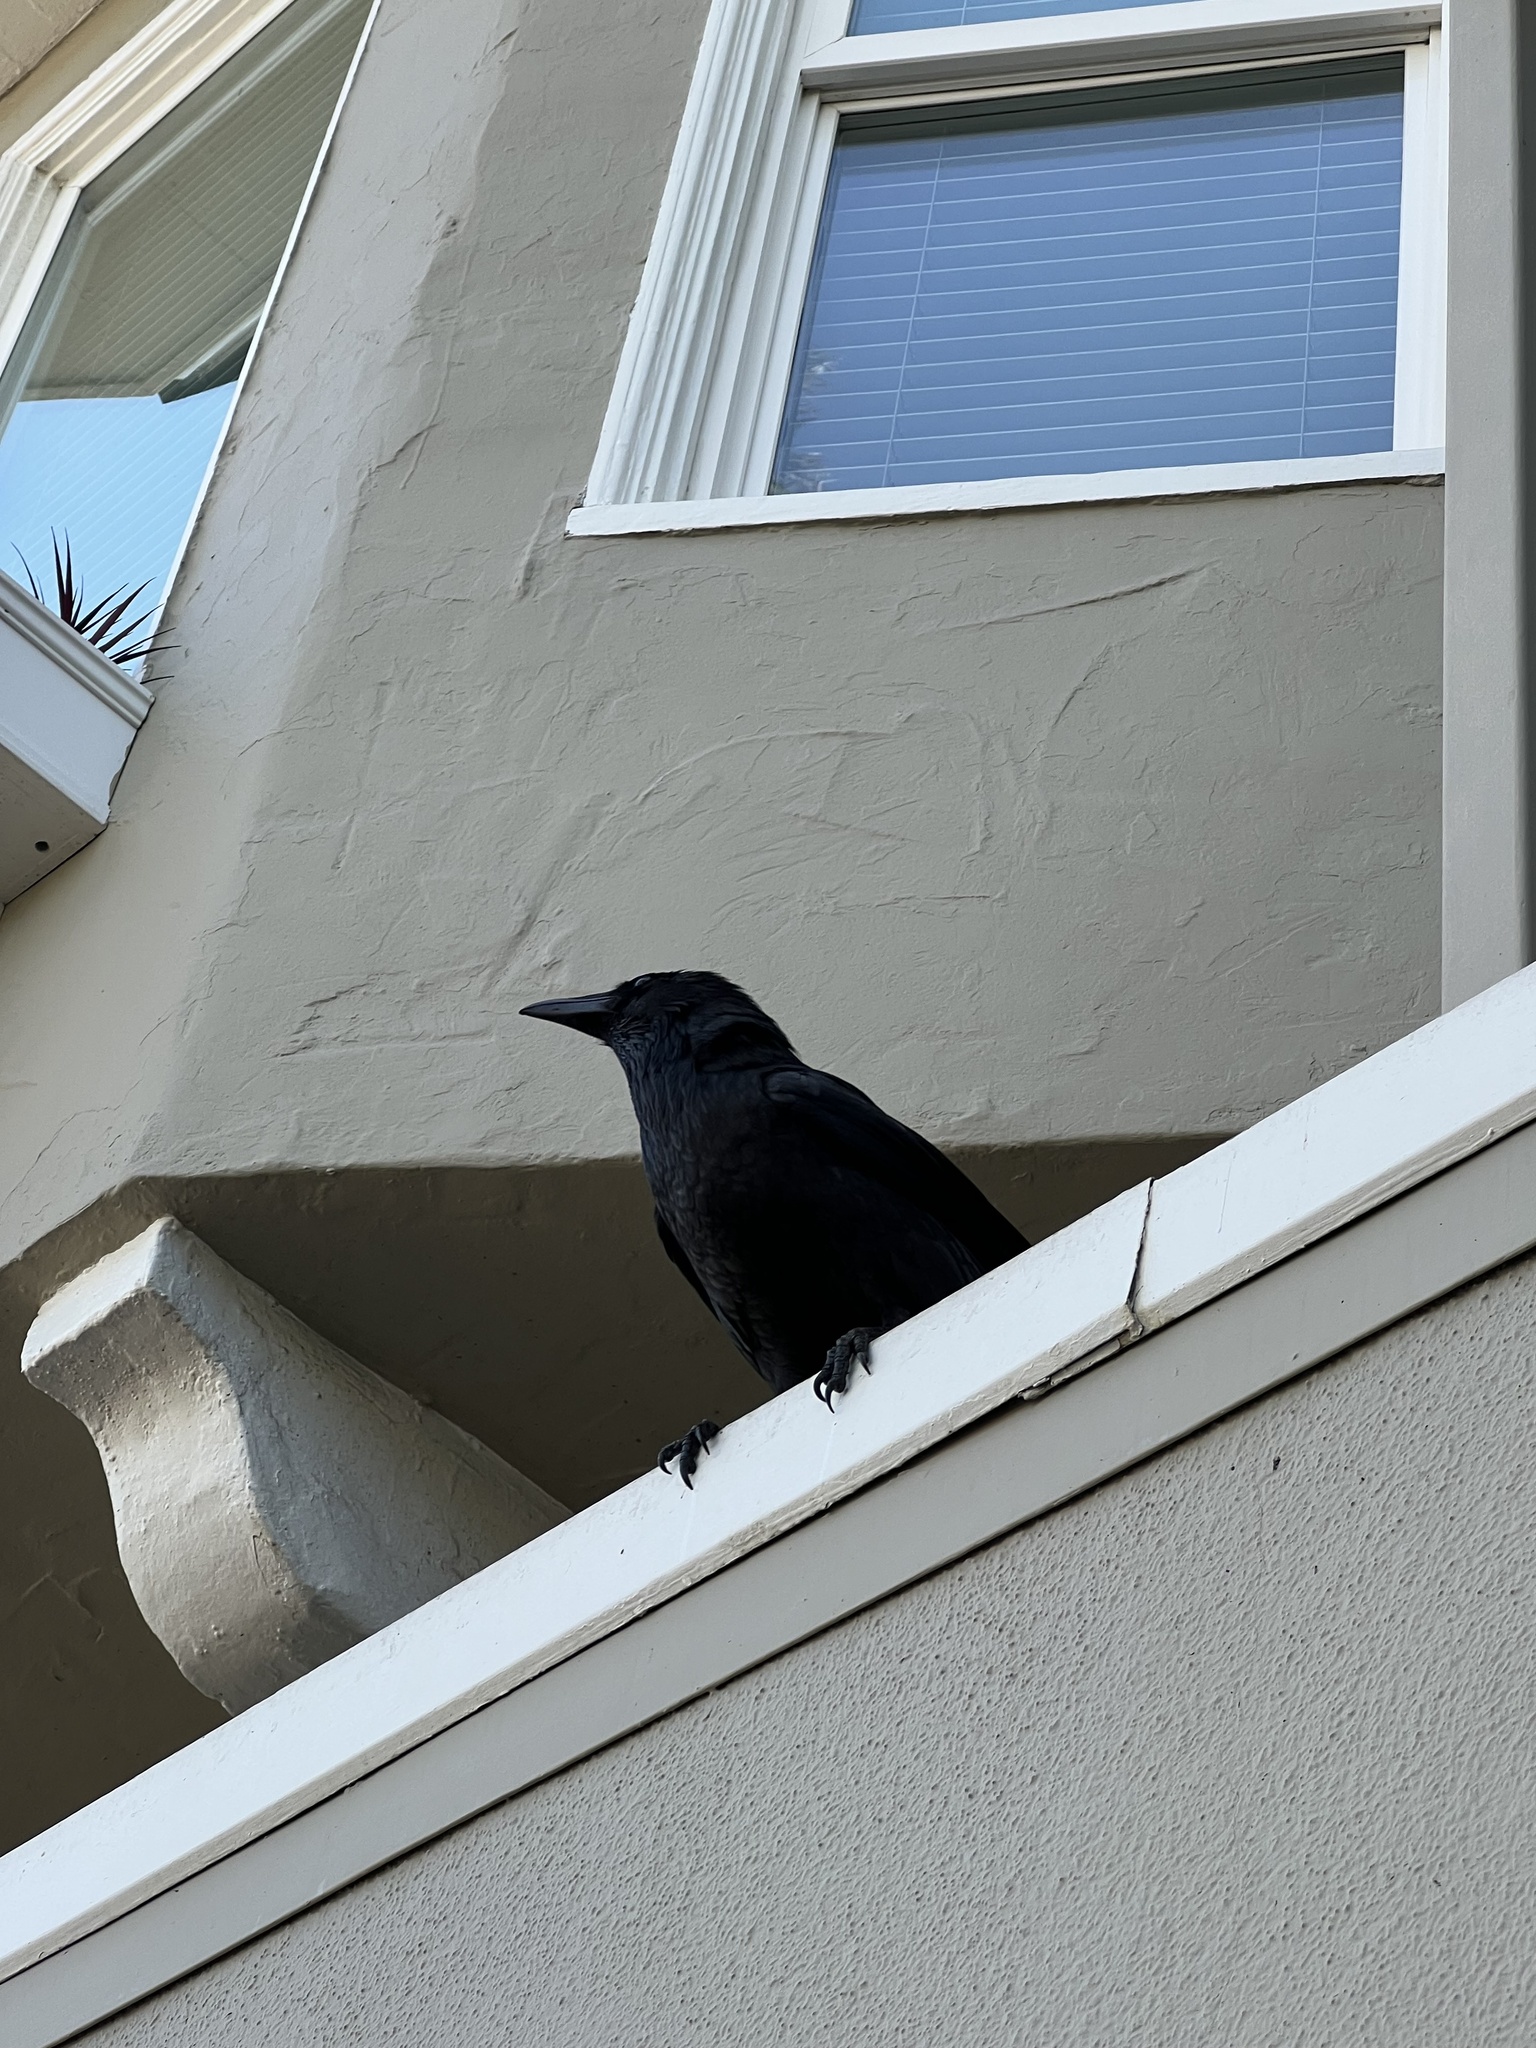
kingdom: Animalia
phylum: Chordata
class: Aves
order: Passeriformes
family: Corvidae
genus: Corvus
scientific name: Corvus brachyrhynchos
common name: American crow
